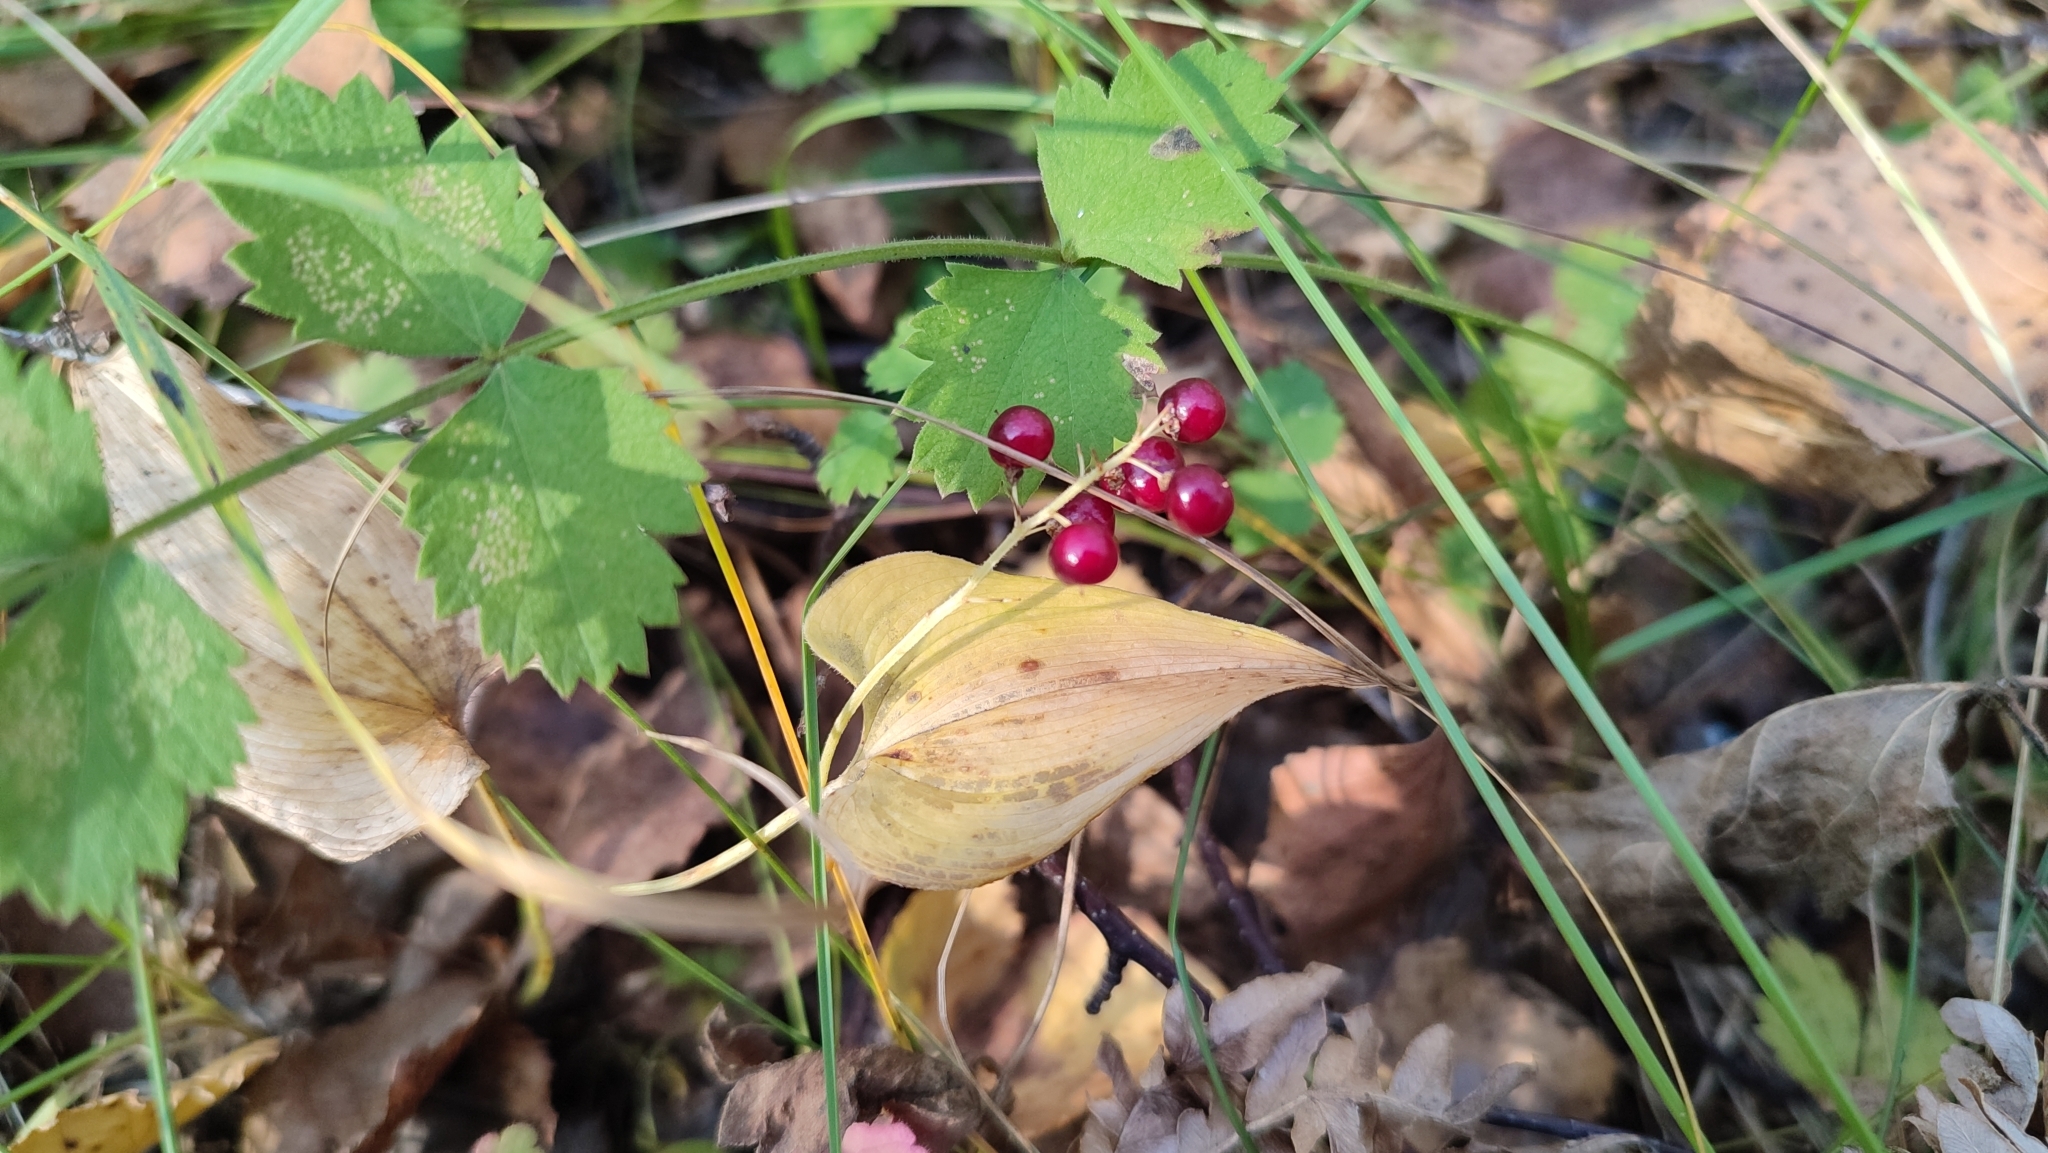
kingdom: Plantae
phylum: Tracheophyta
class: Liliopsida
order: Asparagales
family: Asparagaceae
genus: Maianthemum
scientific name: Maianthemum bifolium
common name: May lily
